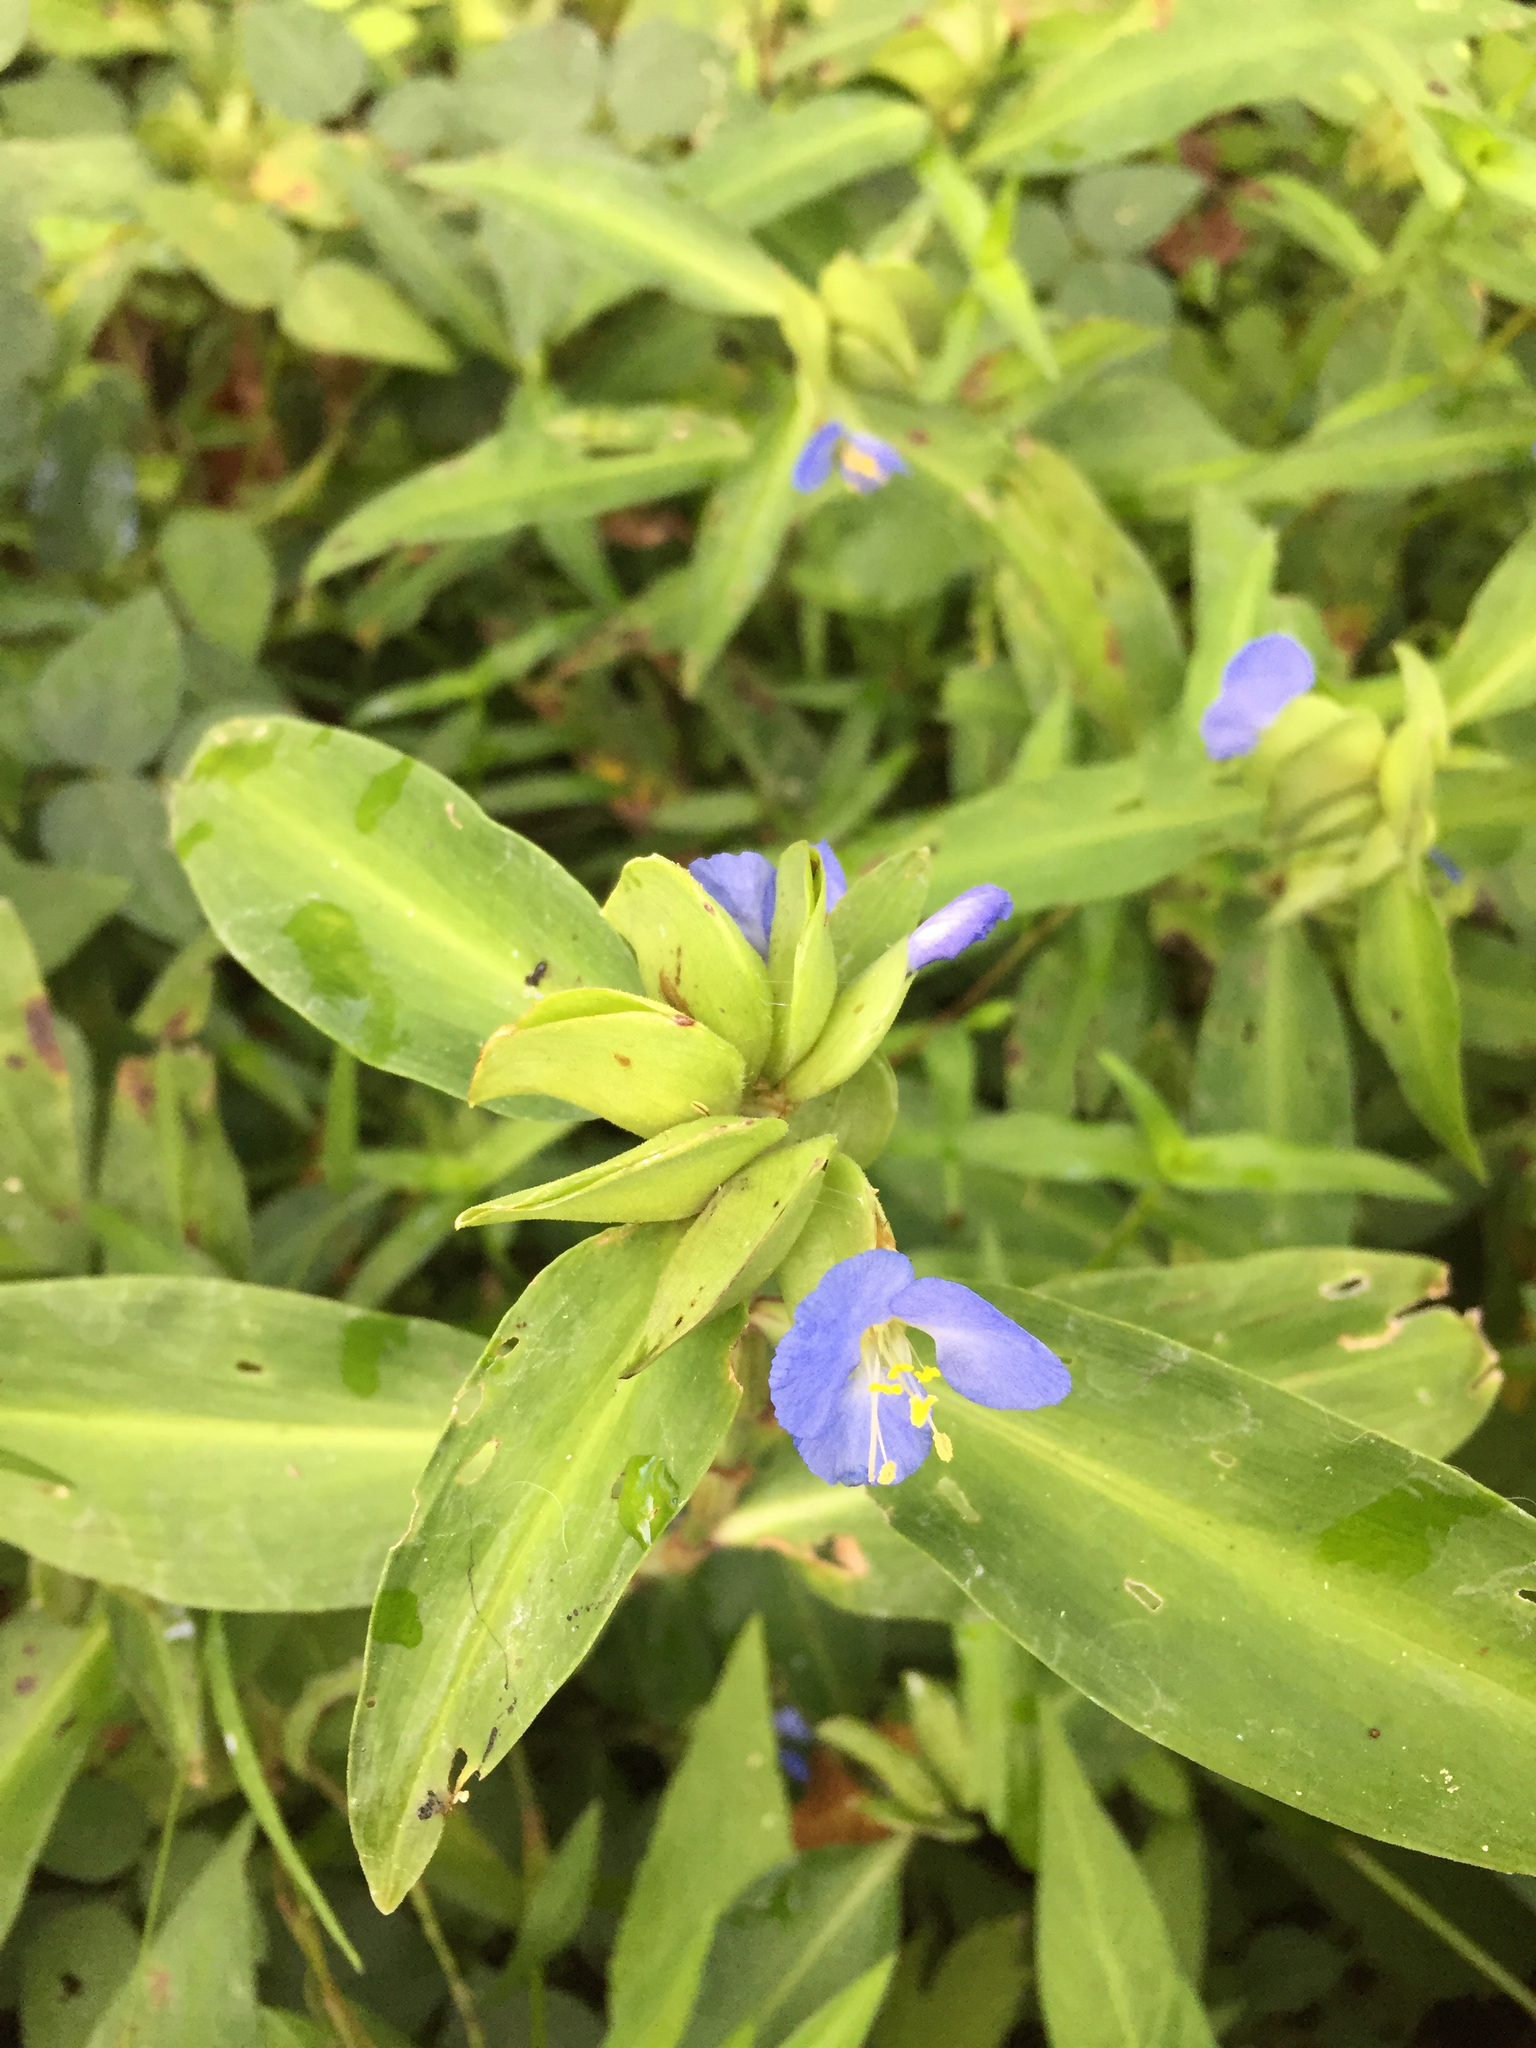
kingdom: Plantae
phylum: Tracheophyta
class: Liliopsida
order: Commelinales
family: Commelinaceae
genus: Commelina
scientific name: Commelina virginica
